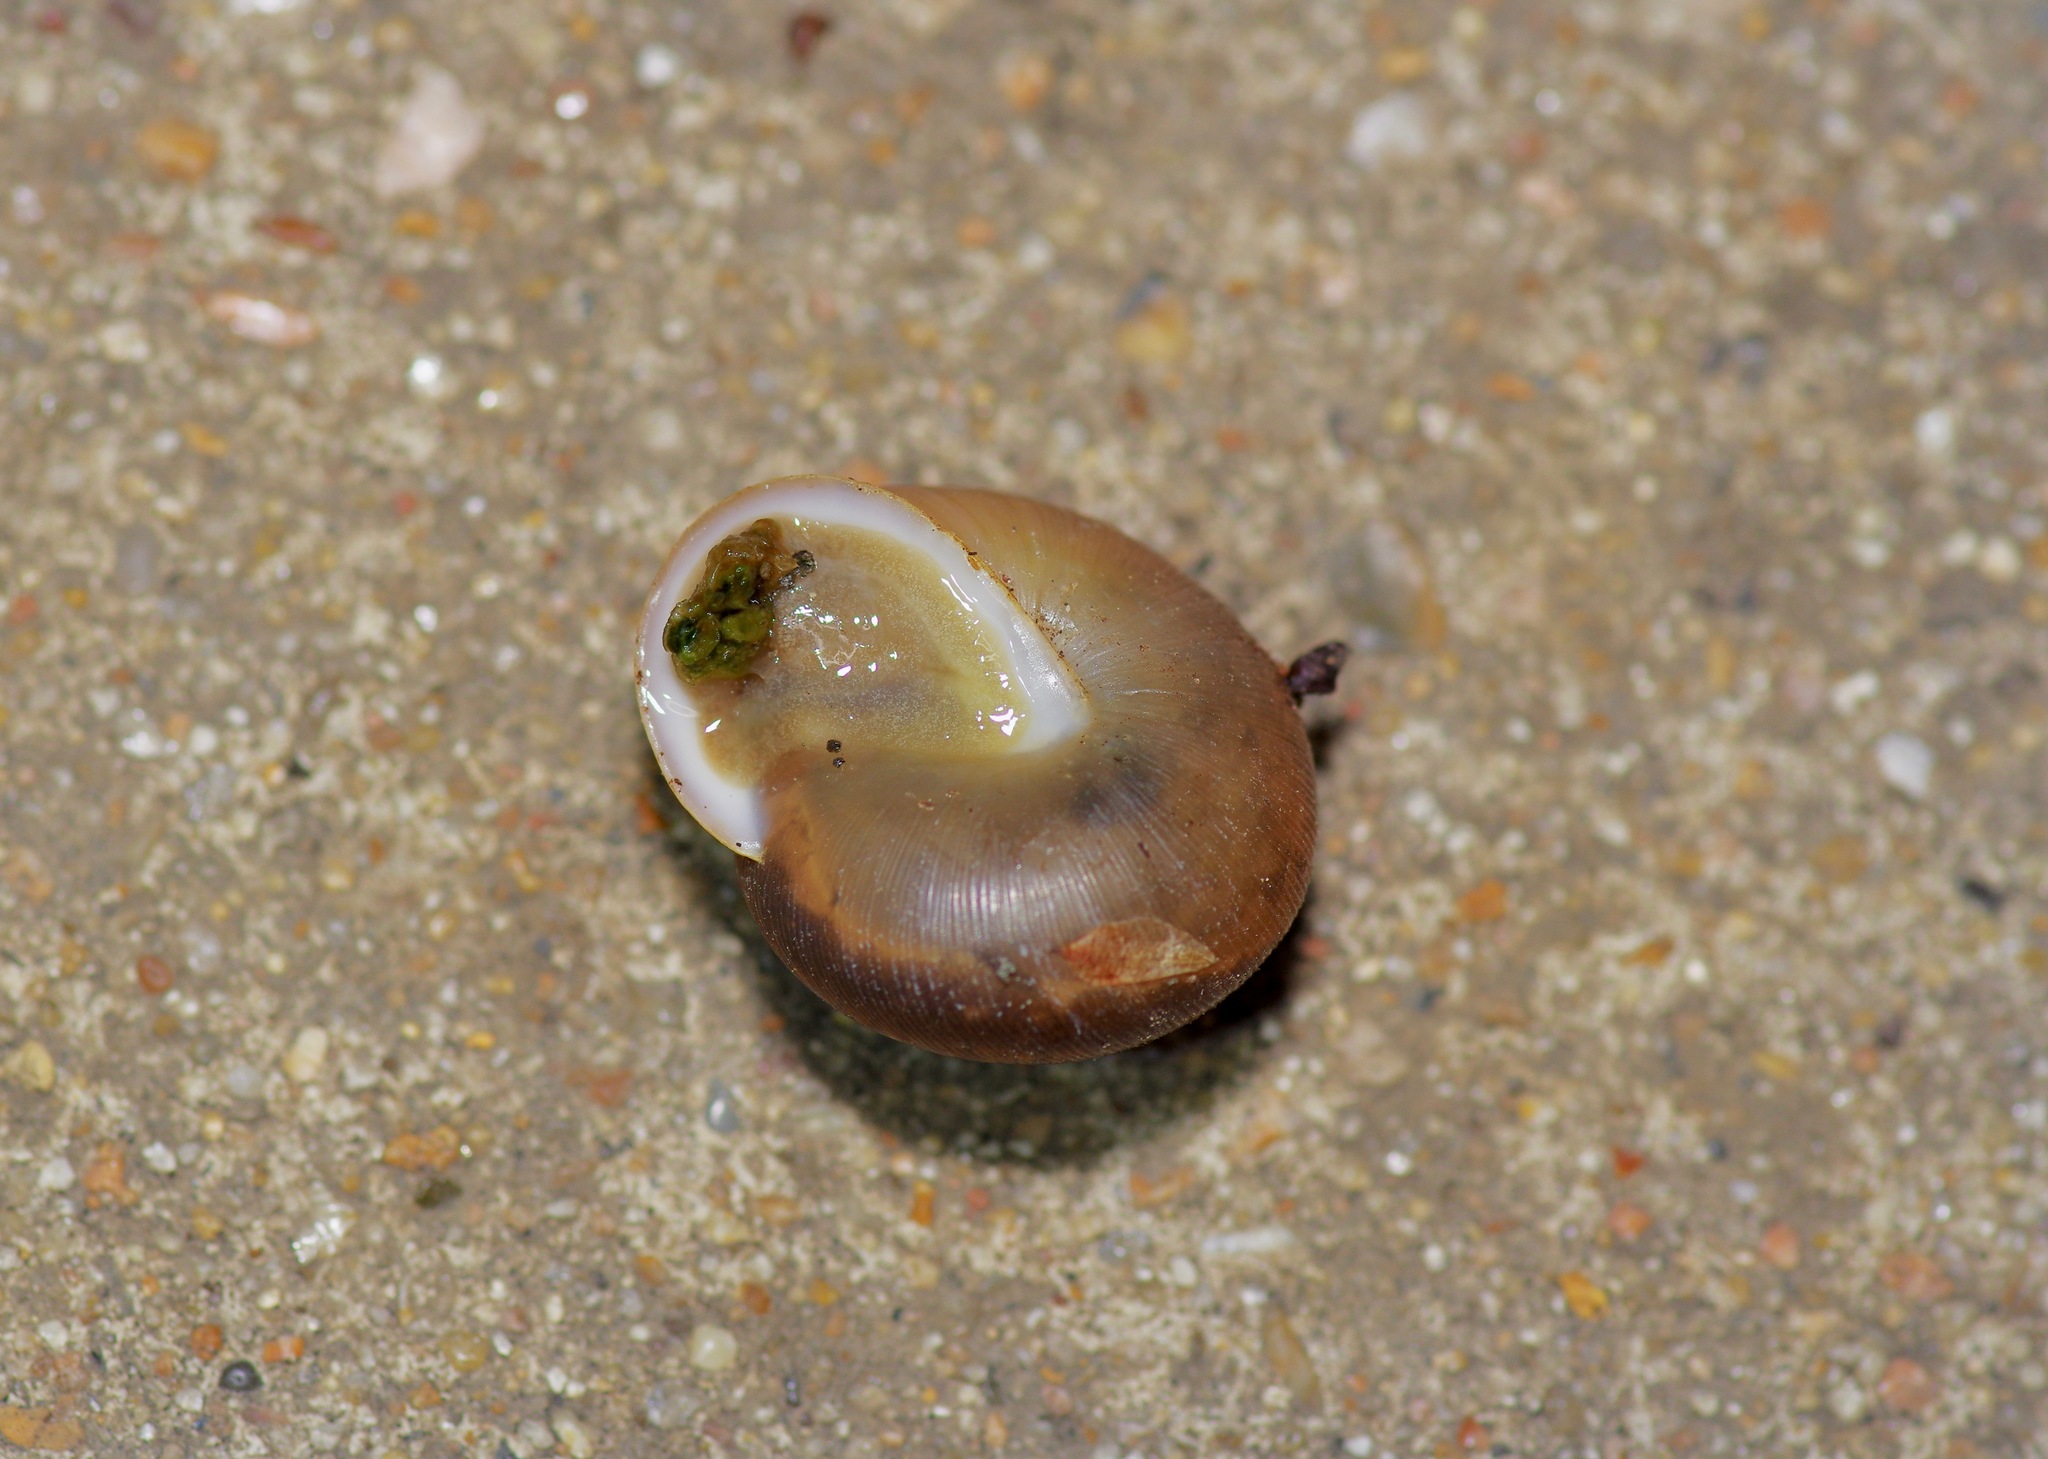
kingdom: Animalia
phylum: Mollusca
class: Gastropoda
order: Stylommatophora
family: Polygyridae
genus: Mesodon
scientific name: Mesodon thyroidus
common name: White-lip globe
